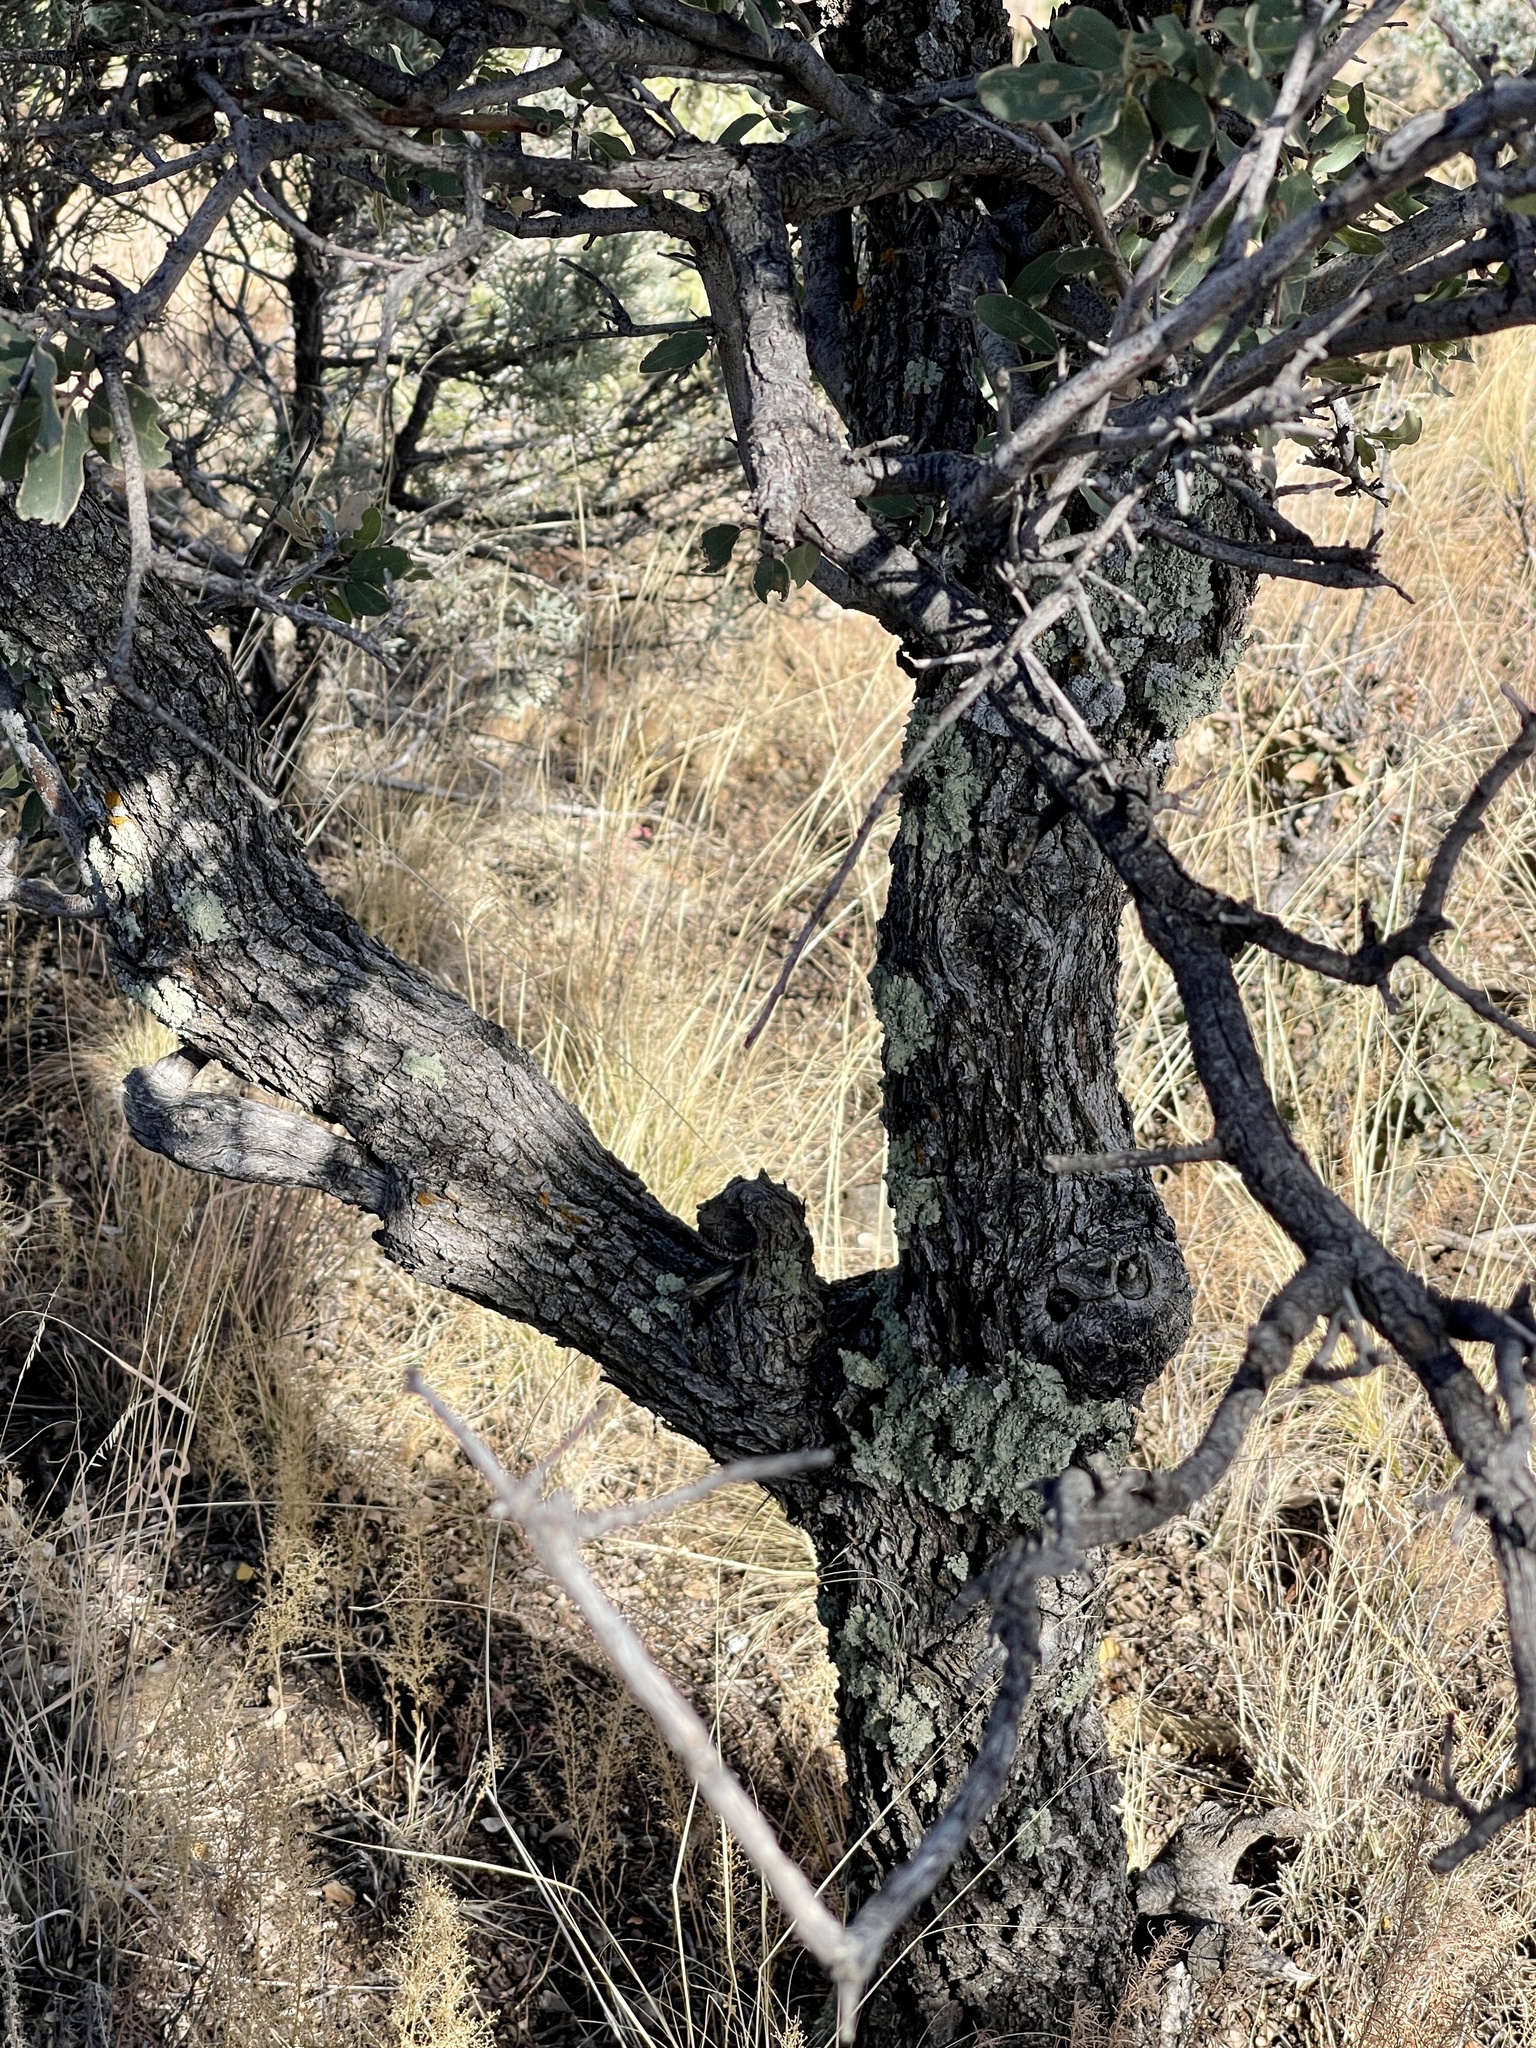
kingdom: Plantae
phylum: Tracheophyta
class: Magnoliopsida
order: Fagales
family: Fagaceae
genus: Quercus
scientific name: Quercus grisea
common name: Gray oak
